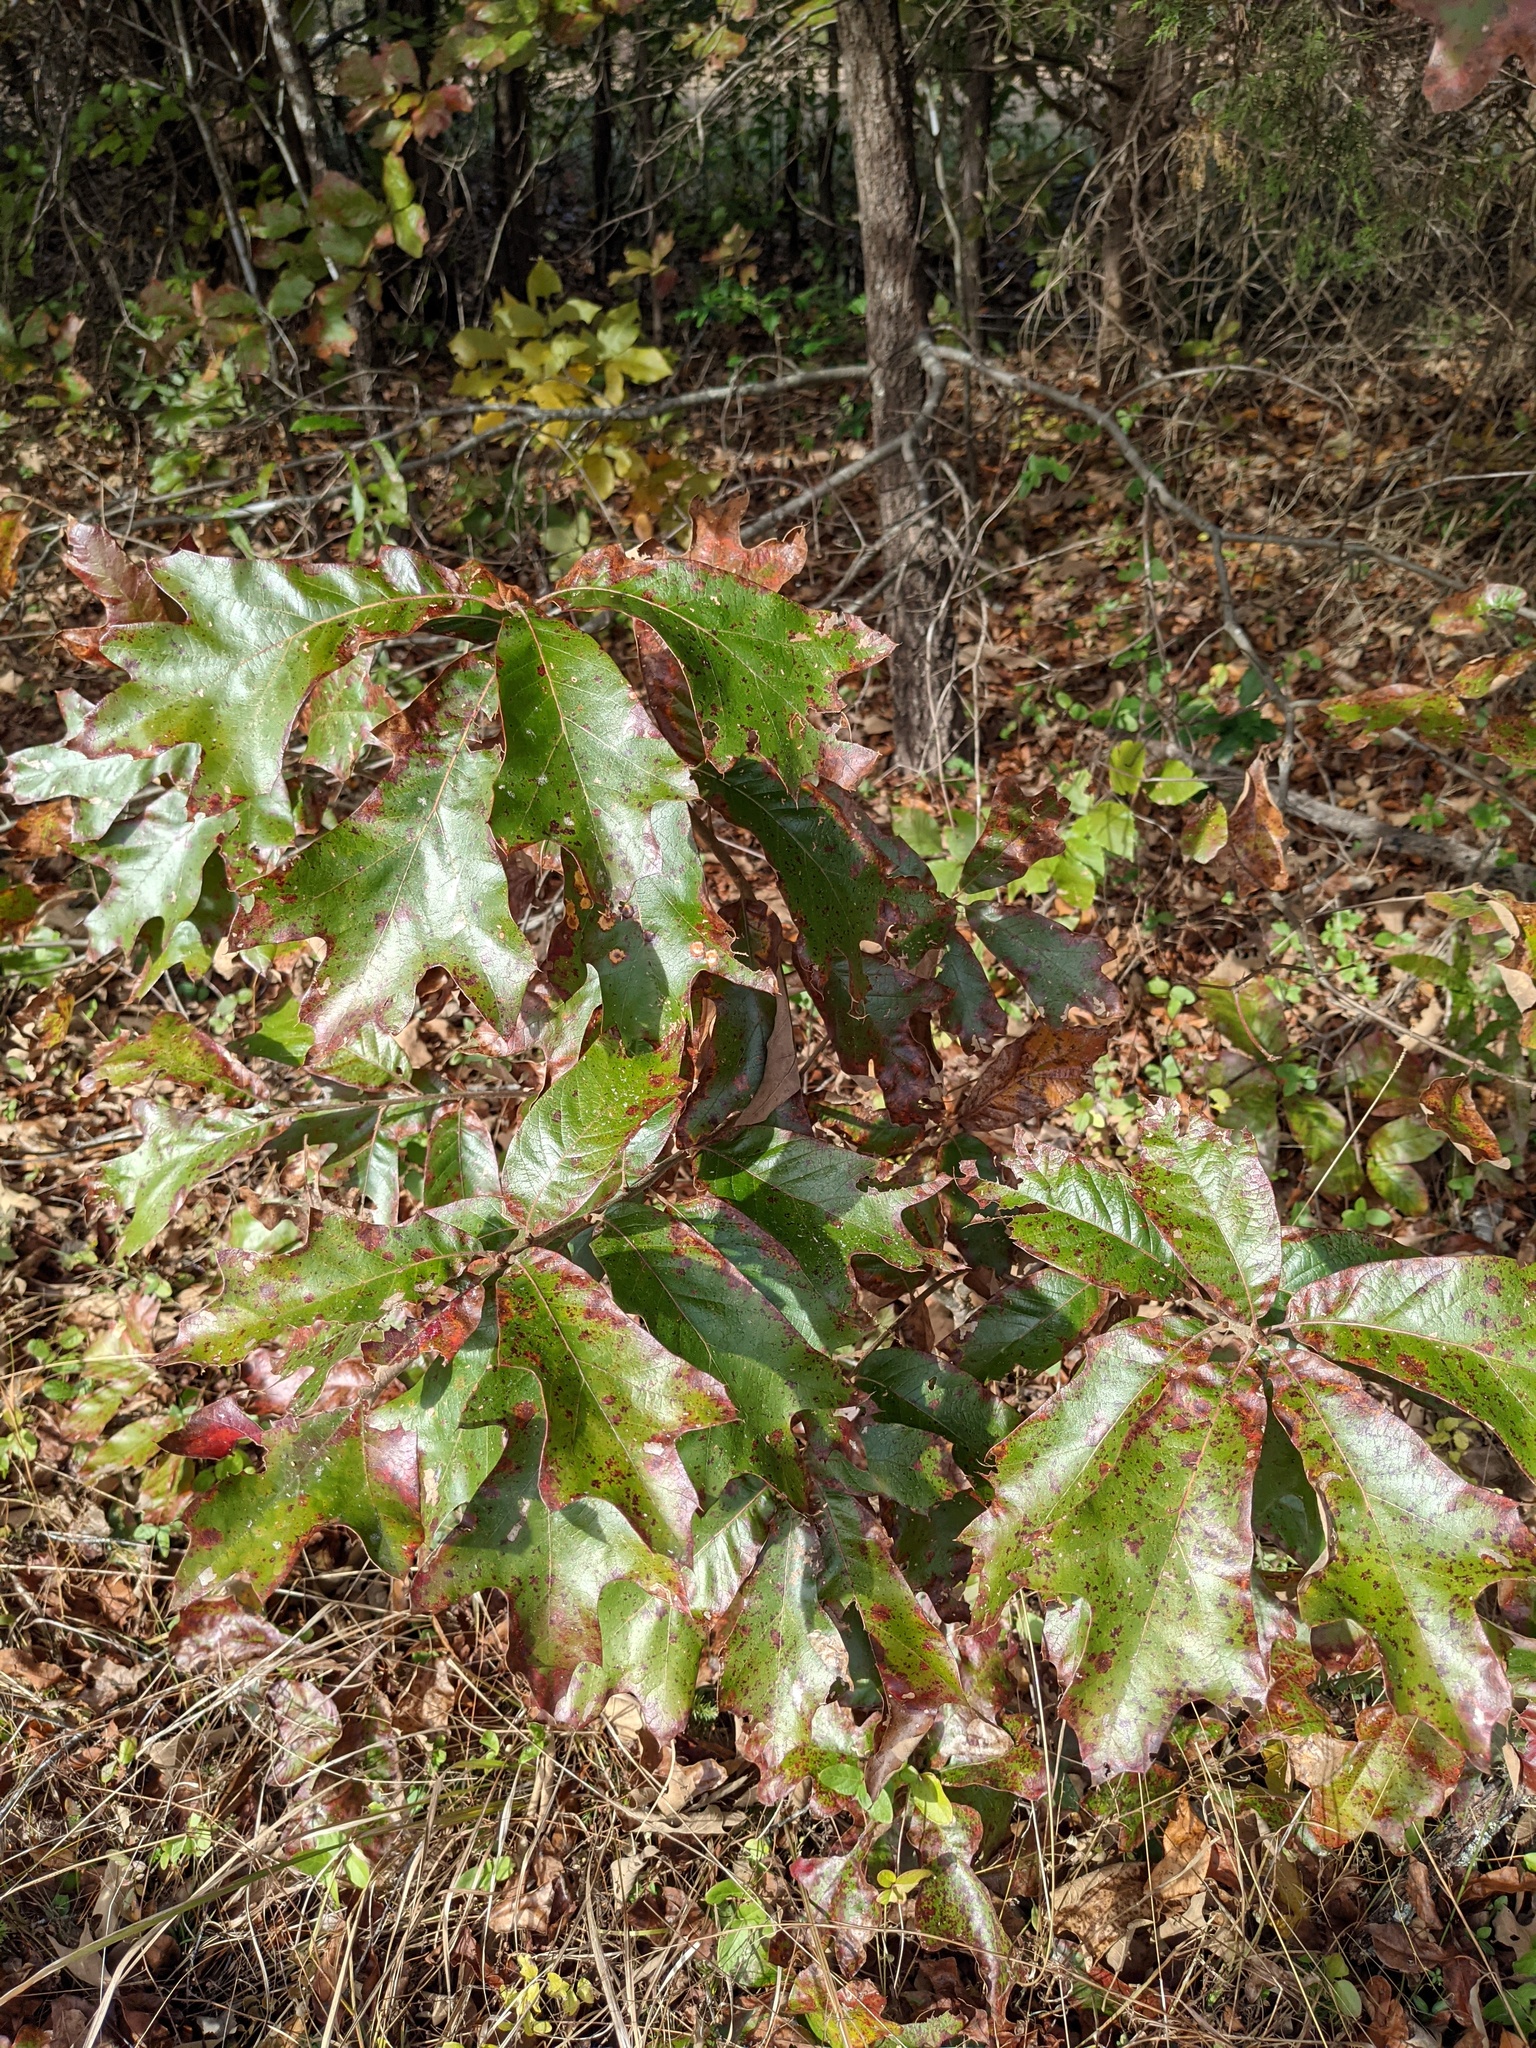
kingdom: Plantae
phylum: Tracheophyta
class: Magnoliopsida
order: Fagales
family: Fagaceae
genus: Quercus
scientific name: Quercus falcata
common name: Southern red oak
